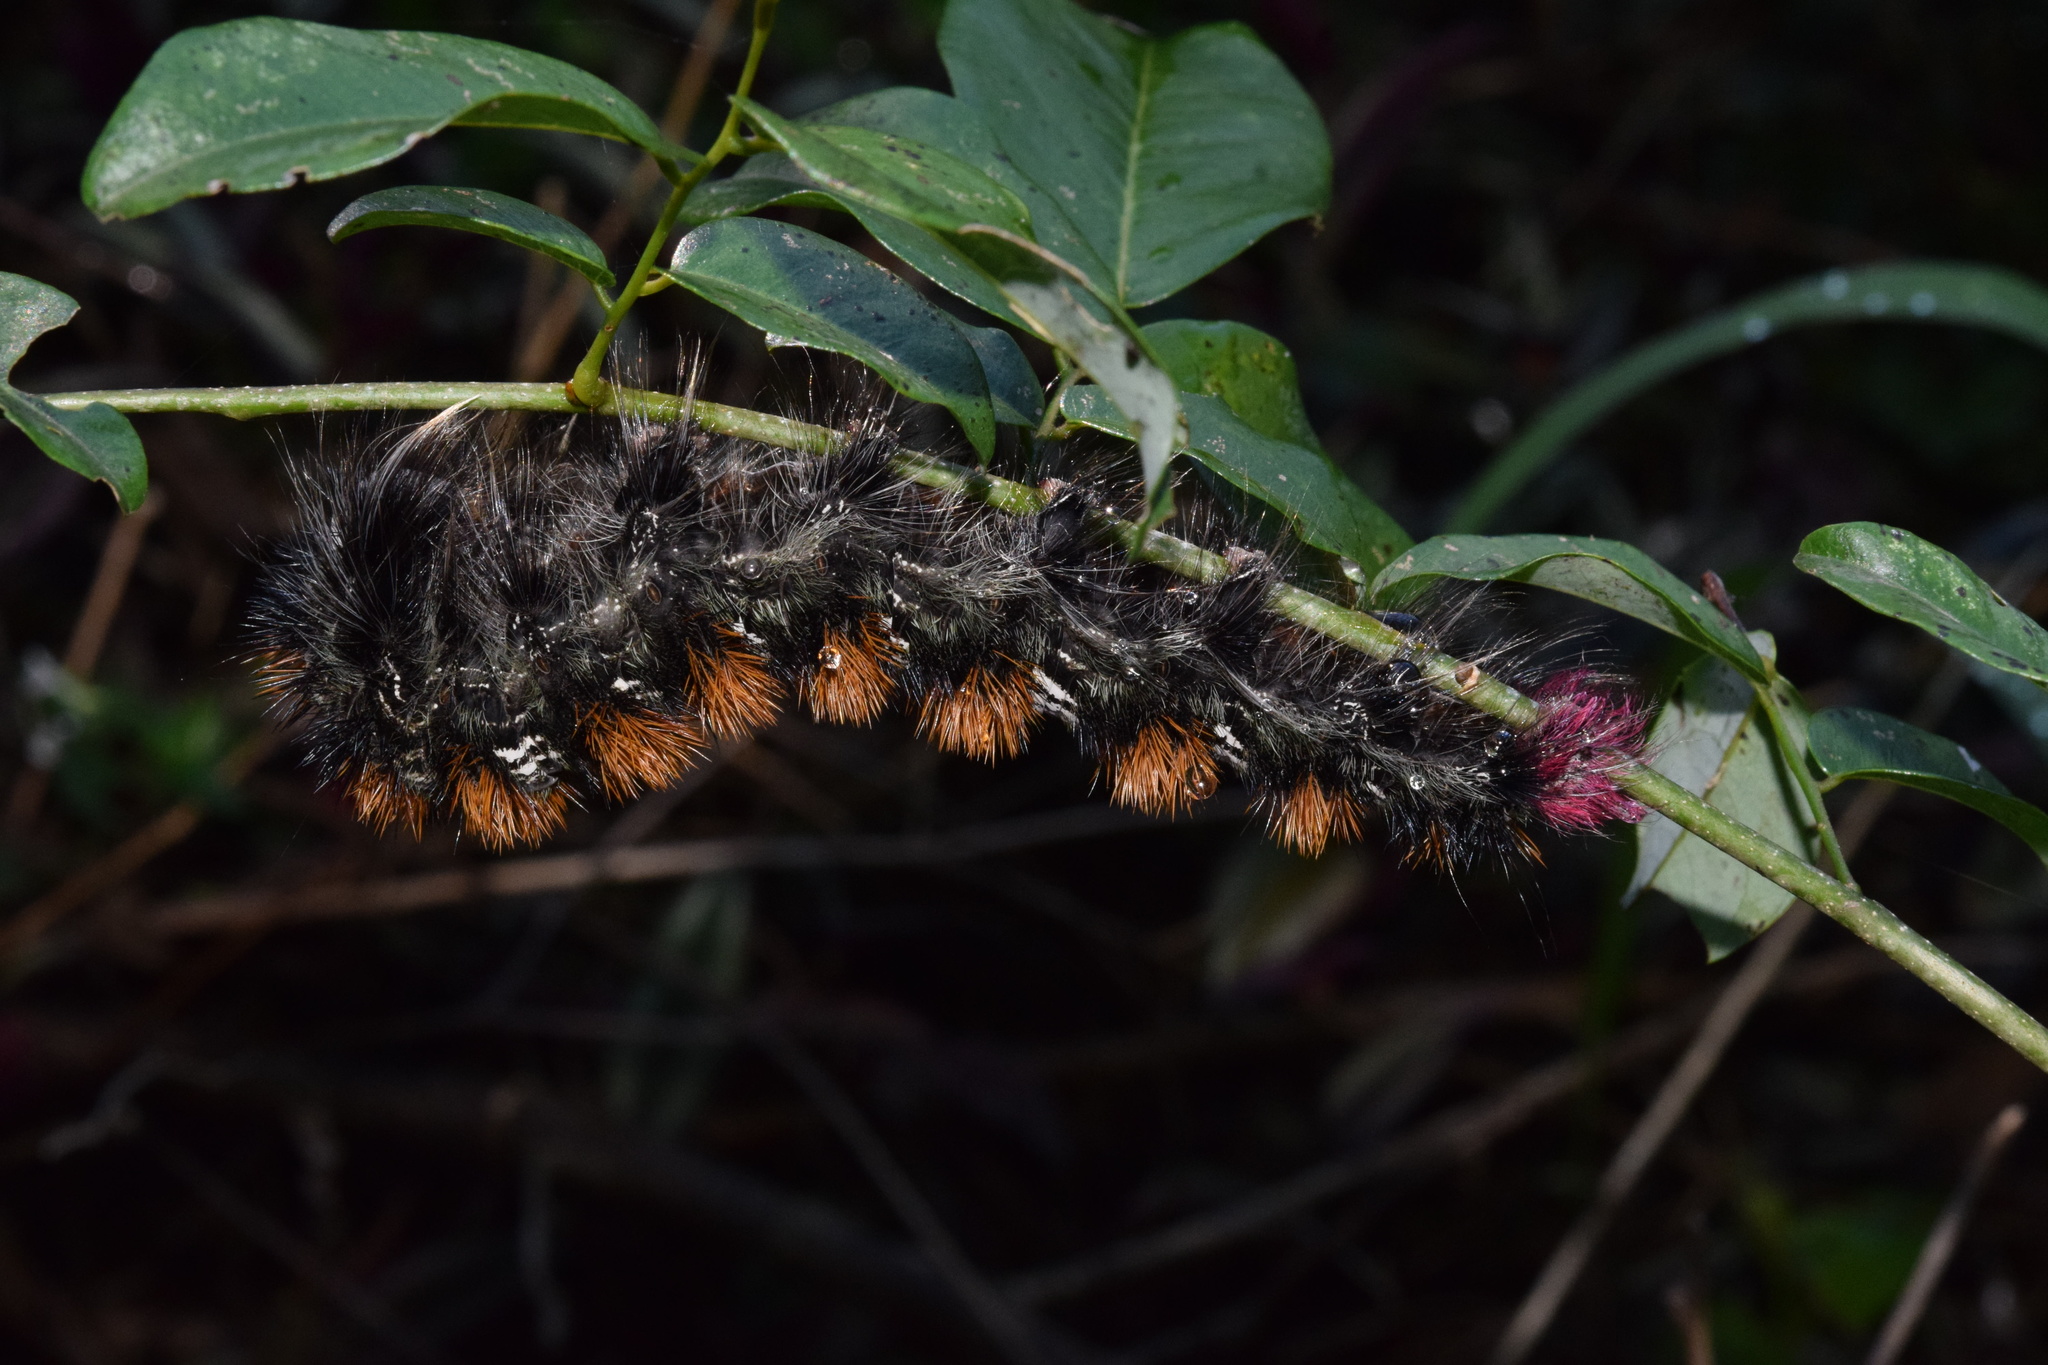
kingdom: Animalia
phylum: Arthropoda
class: Insecta
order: Lepidoptera
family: Lasiocampidae
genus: Catalebeda
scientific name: Catalebeda cuneilinea
